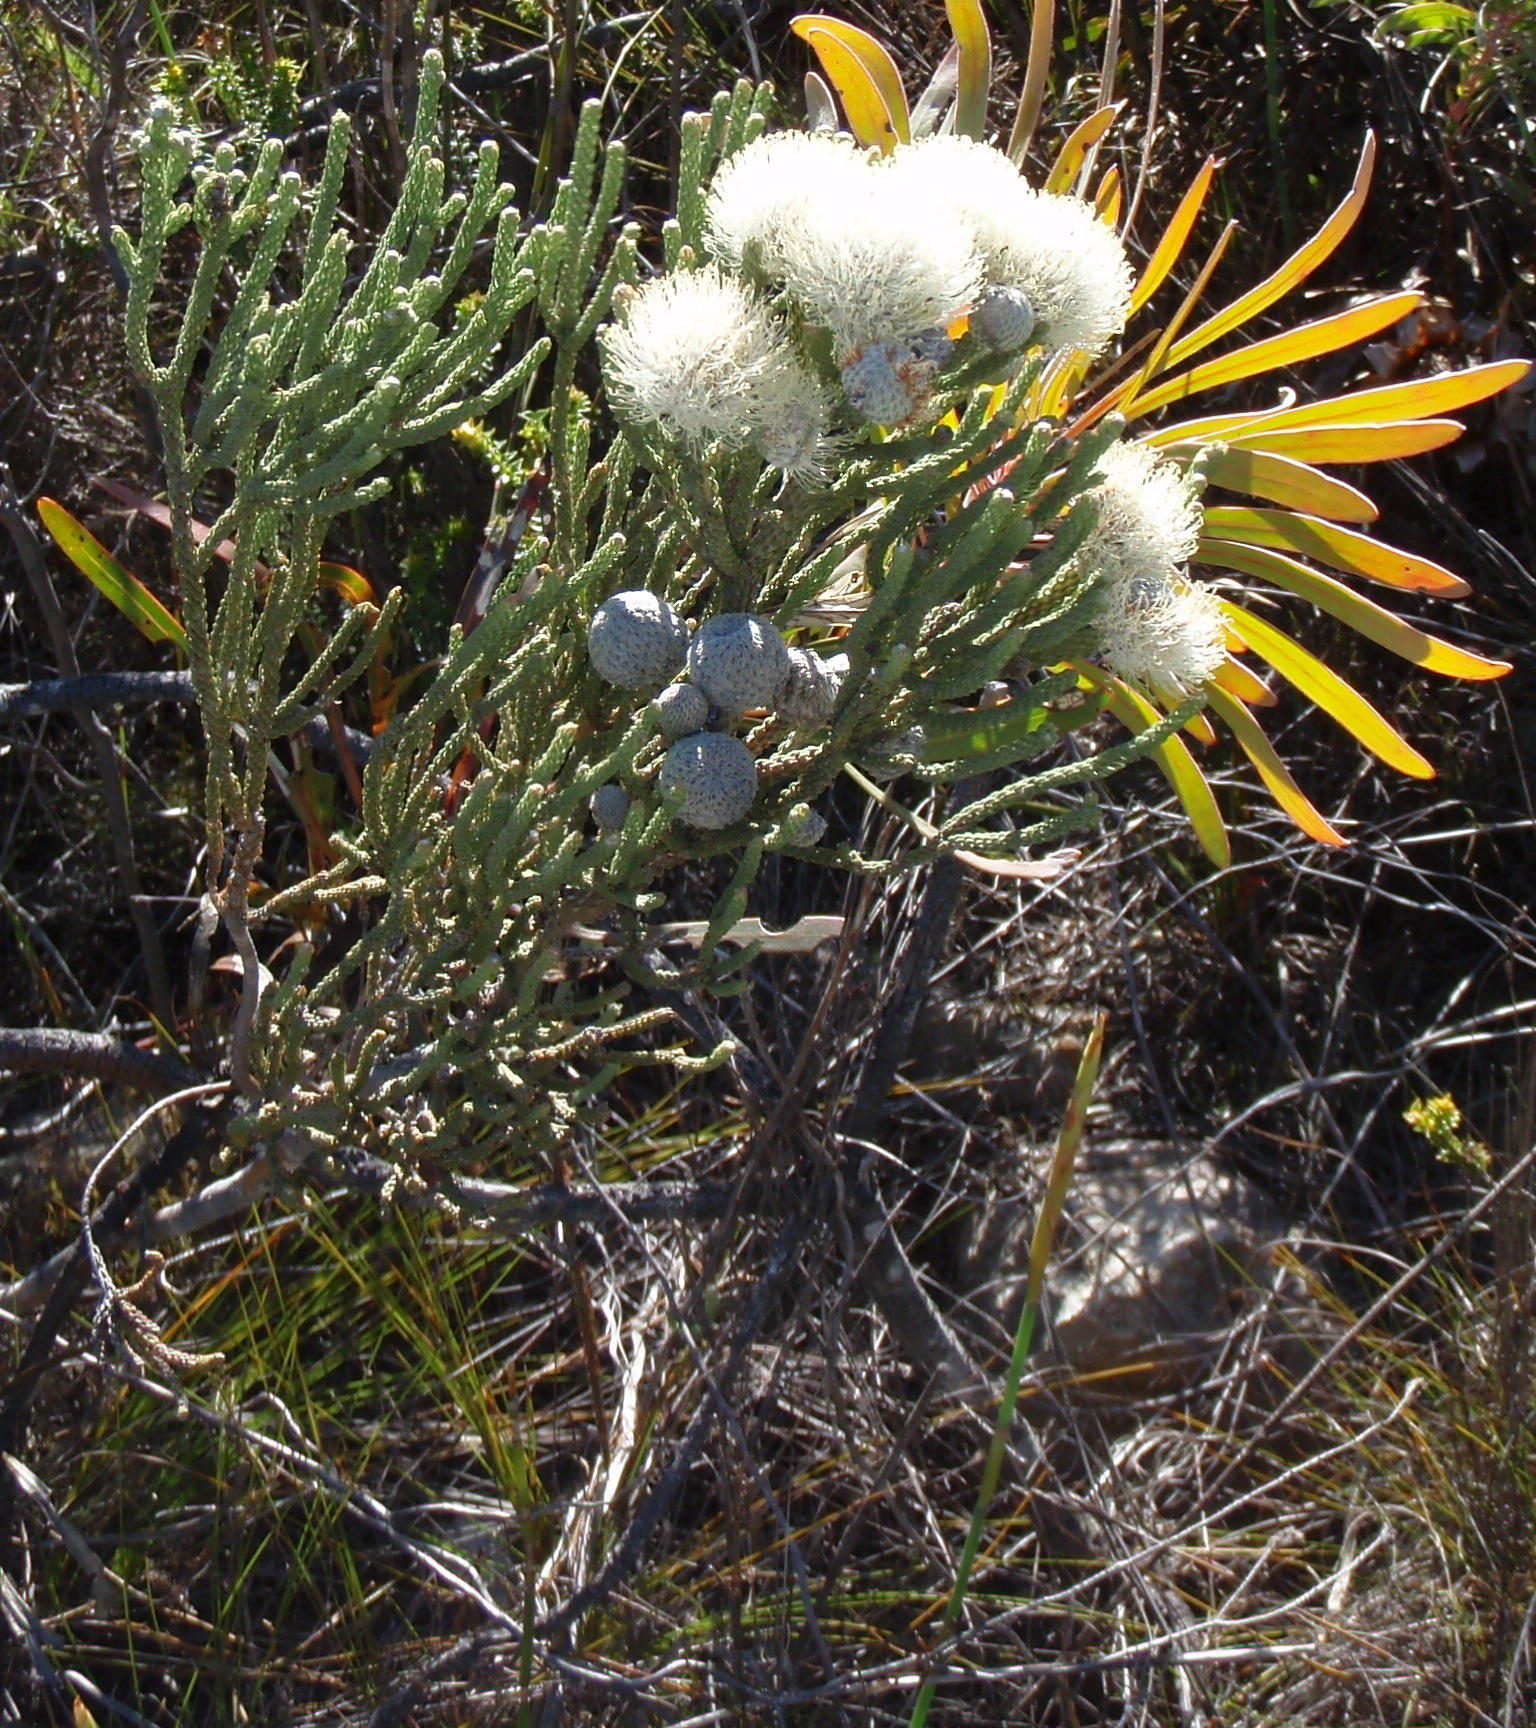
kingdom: Plantae
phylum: Tracheophyta
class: Magnoliopsida
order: Bruniales
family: Bruniaceae
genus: Brunia
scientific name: Brunia laevis
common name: Silver brunia
